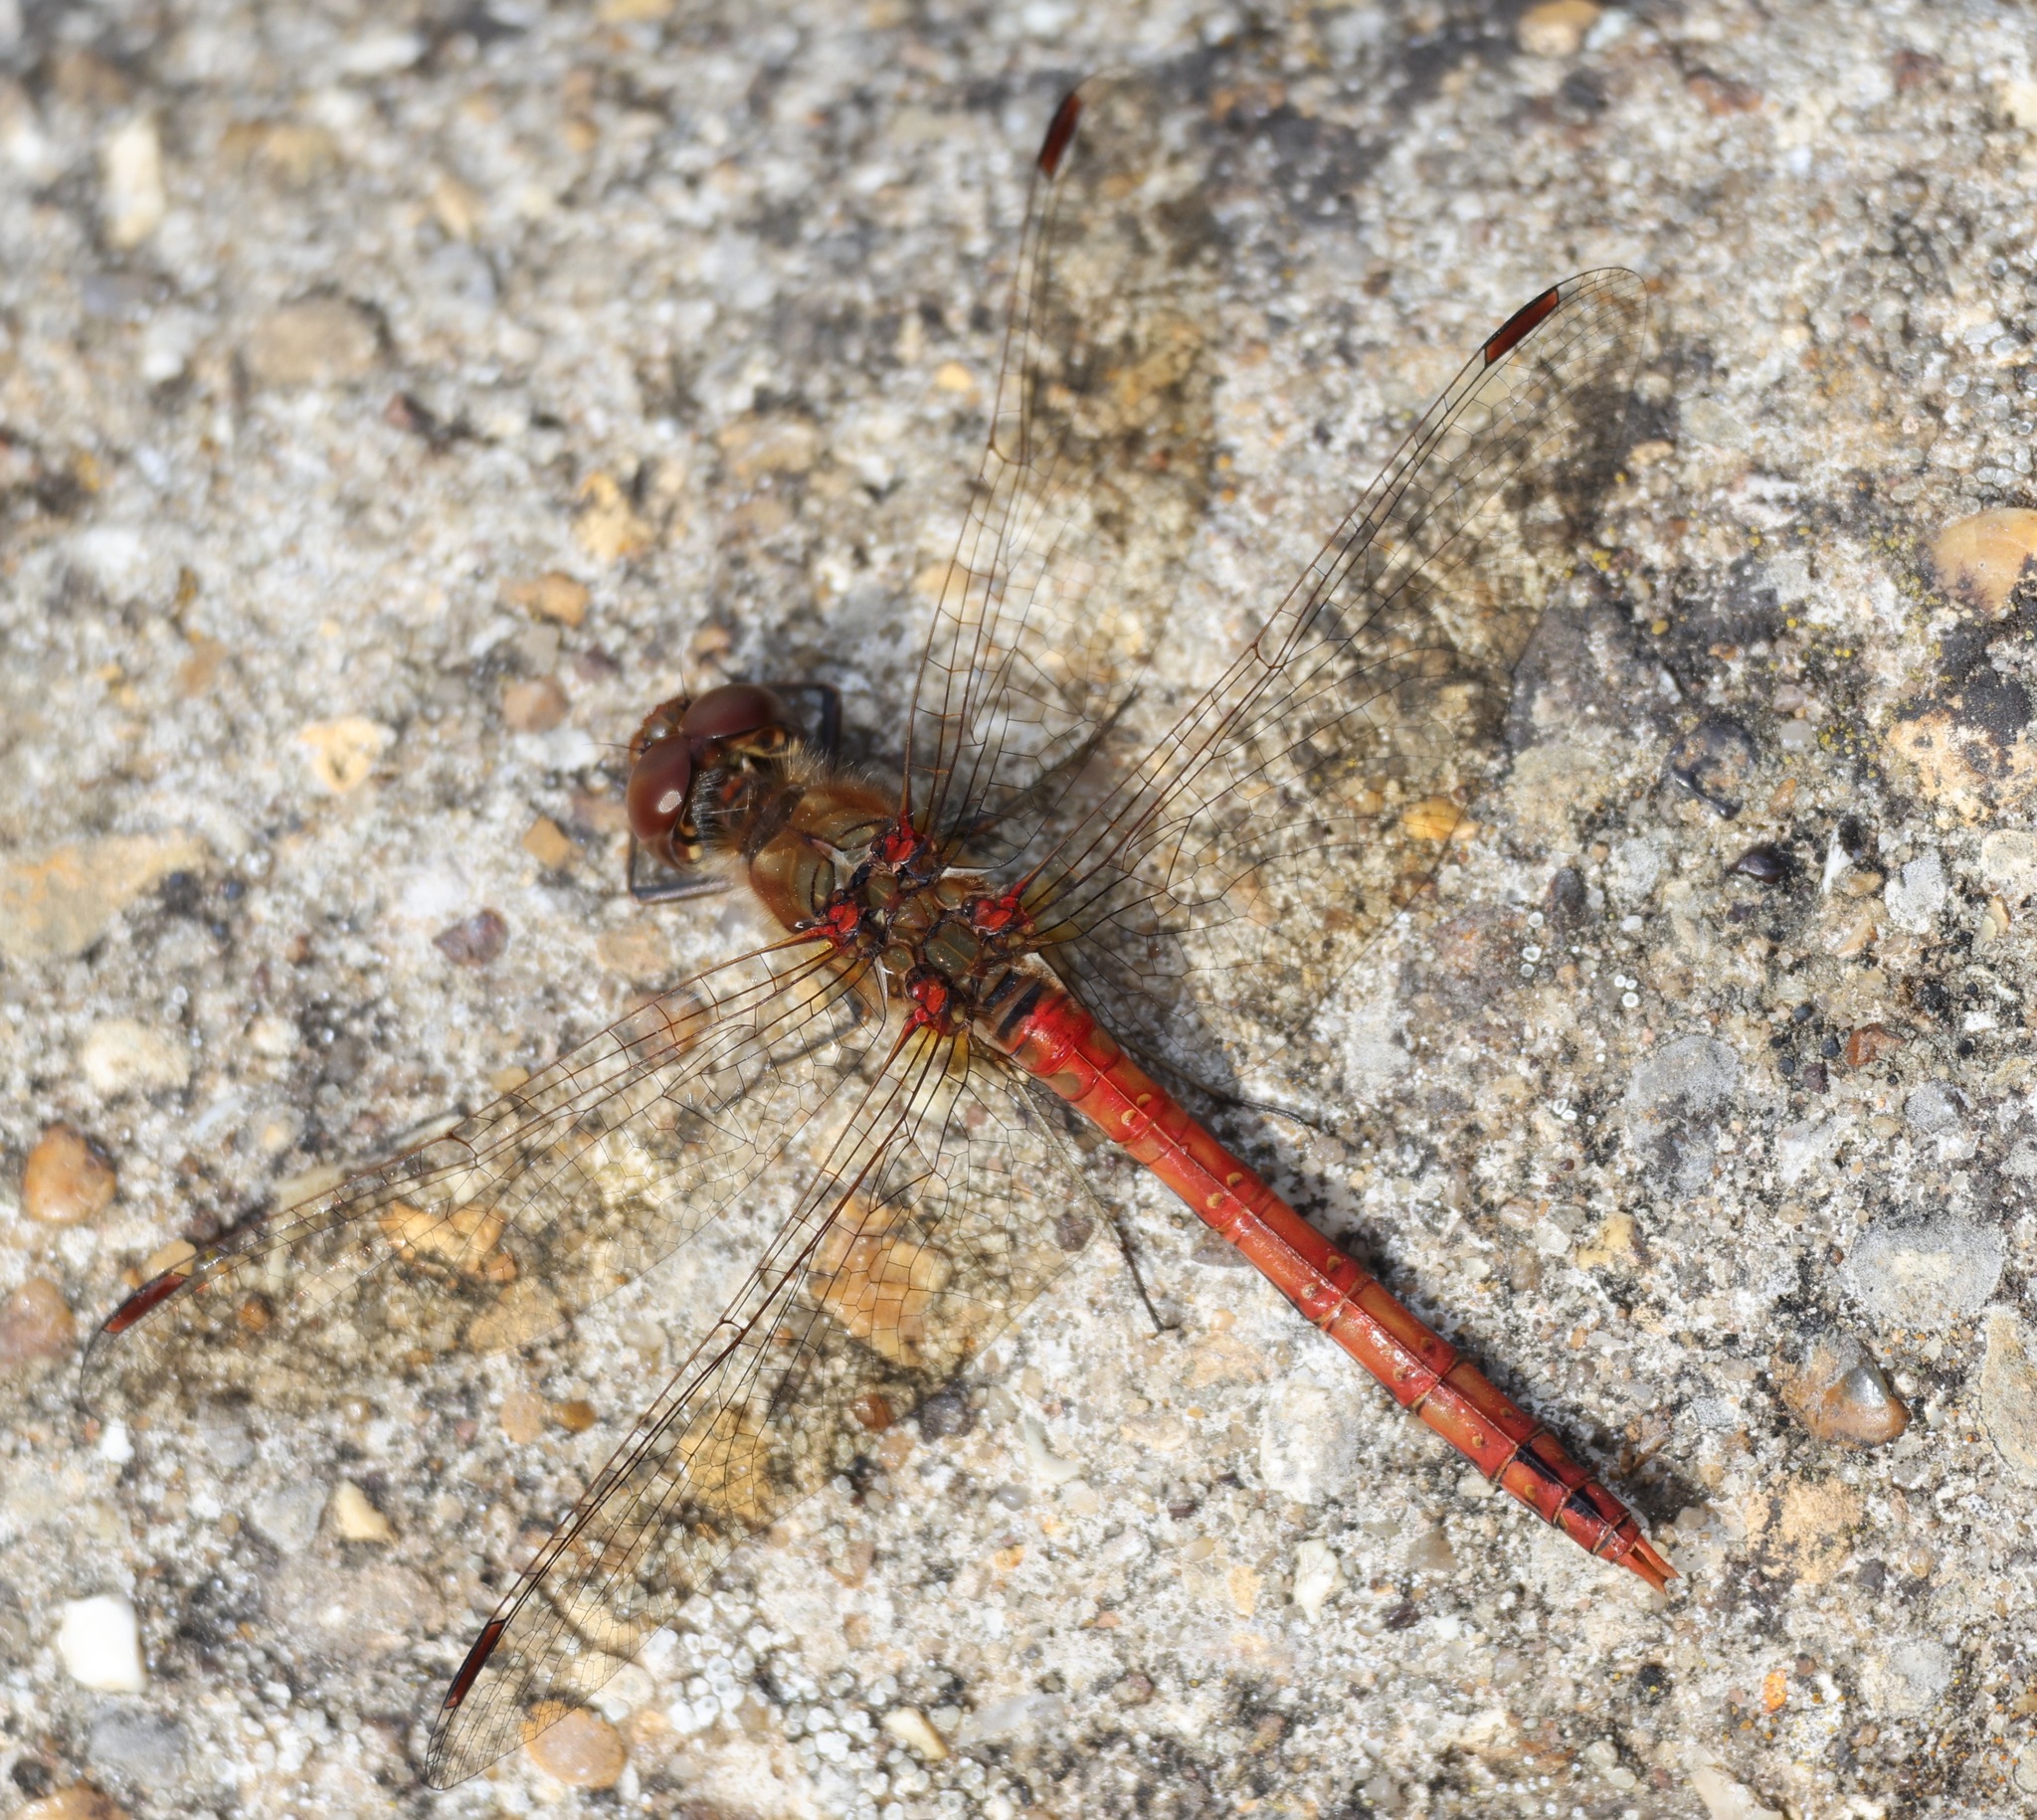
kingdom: Animalia
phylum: Arthropoda
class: Insecta
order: Odonata
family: Libellulidae
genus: Sympetrum
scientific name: Sympetrum striolatum
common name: Common darter
